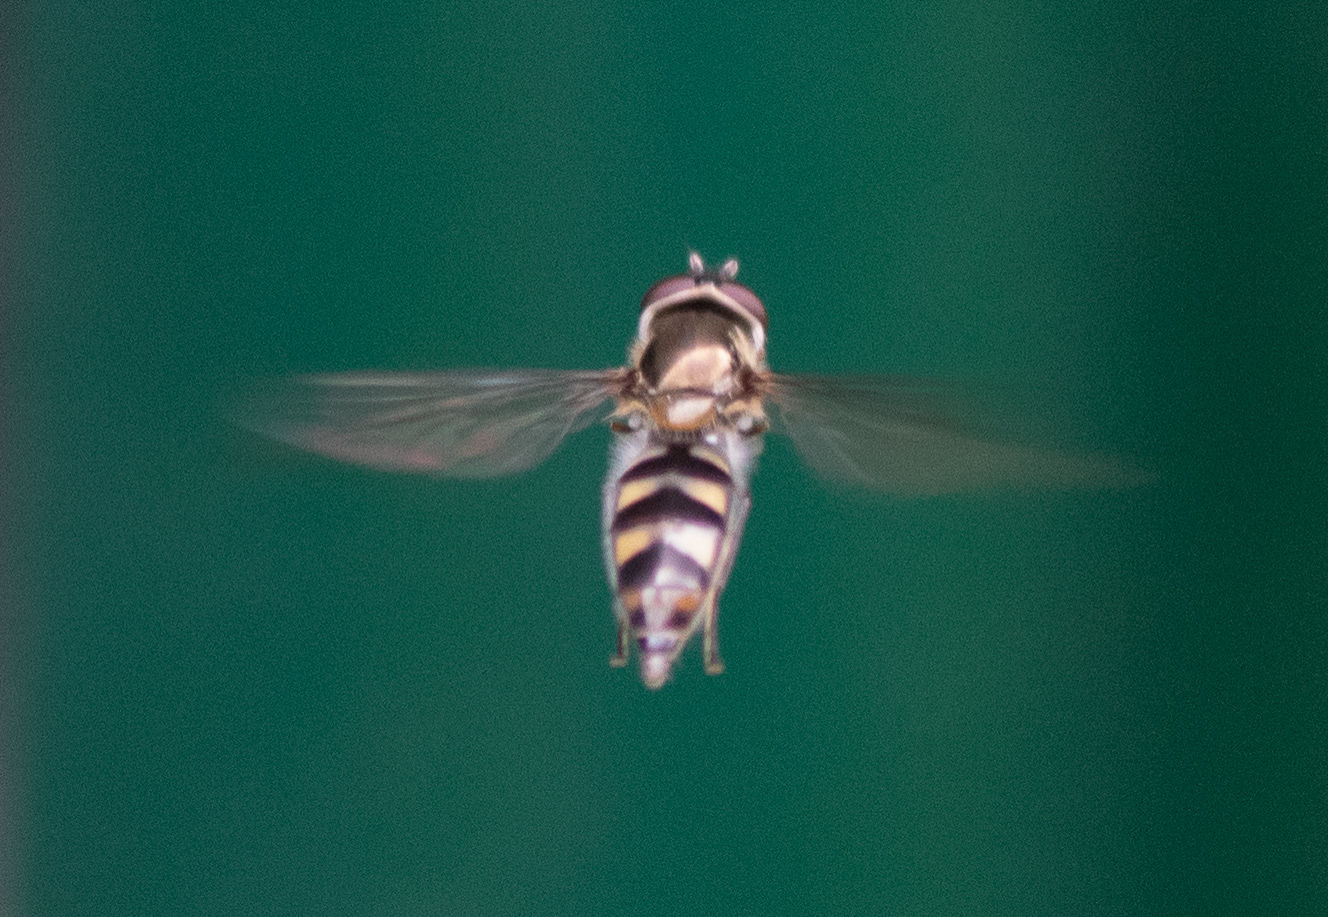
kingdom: Animalia
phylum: Arthropoda
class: Insecta
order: Diptera
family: Syrphidae
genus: Meliscaeva
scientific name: Meliscaeva auricollis
